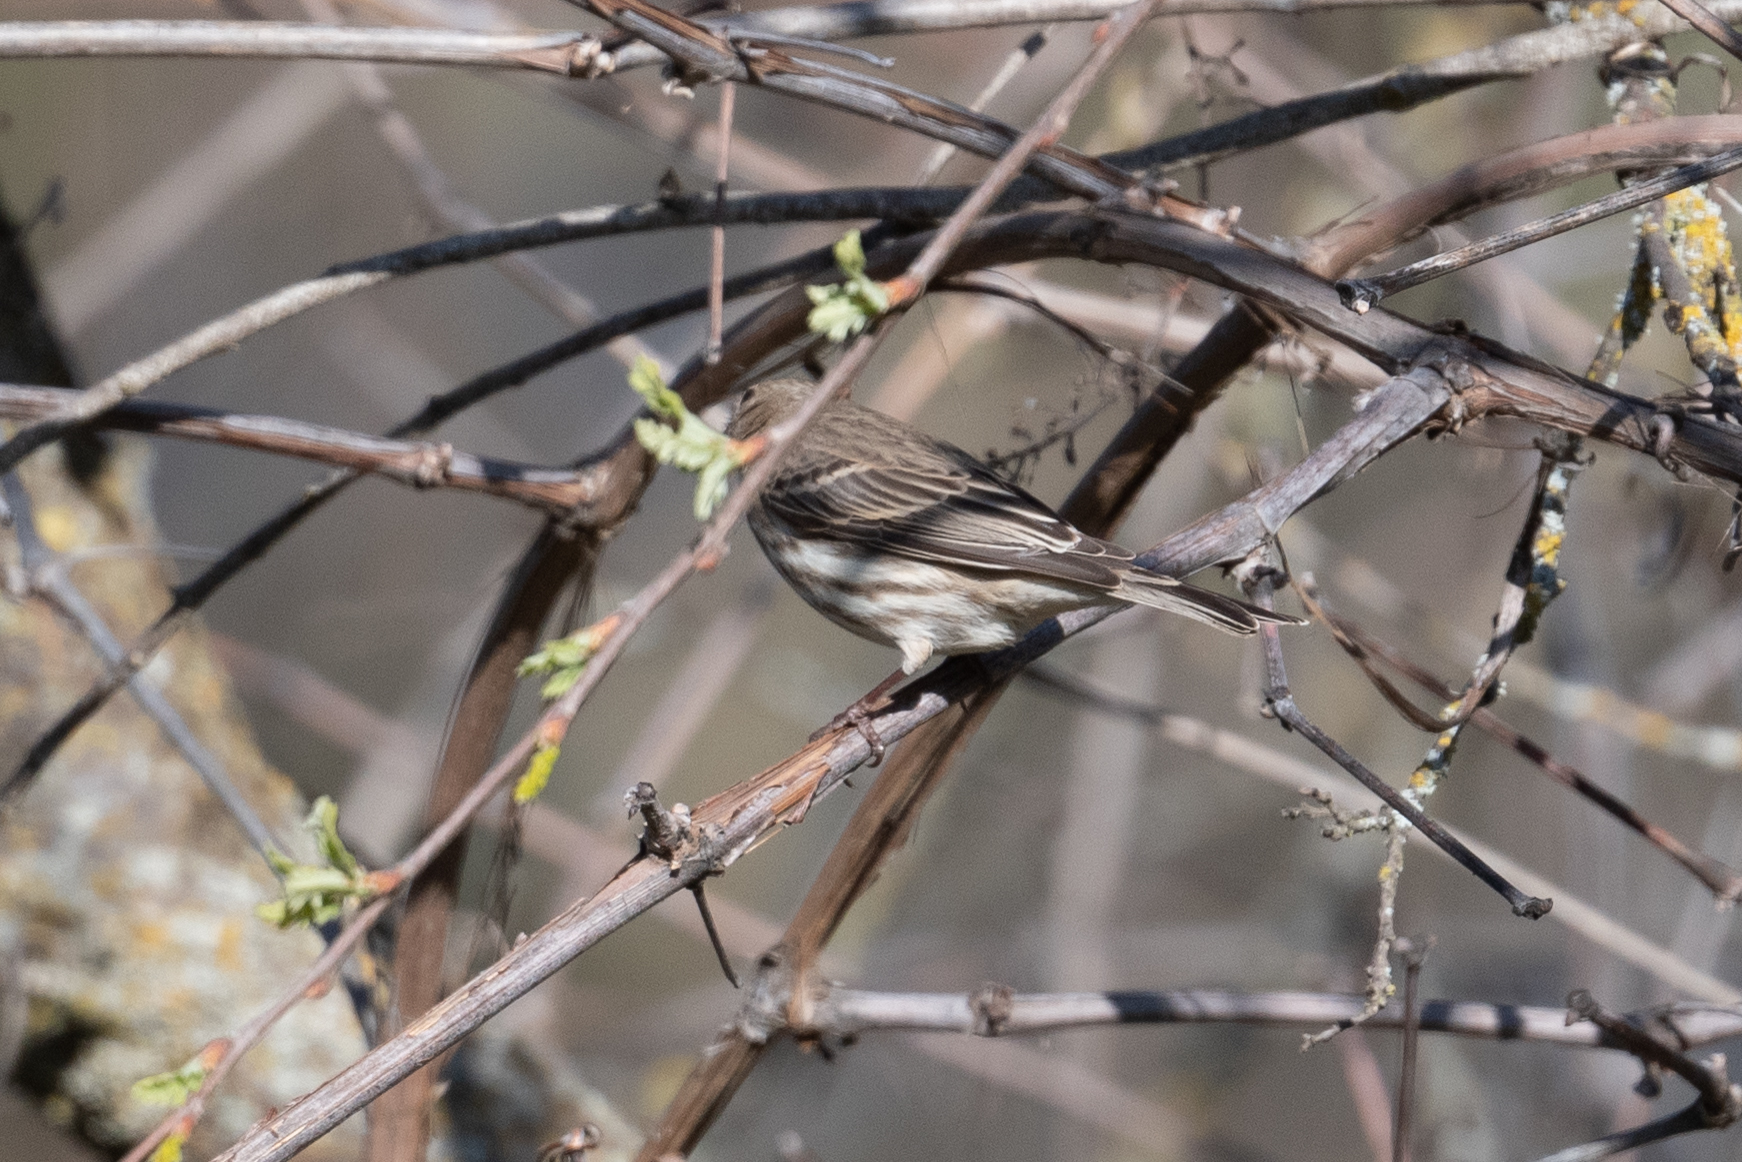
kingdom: Animalia
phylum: Chordata
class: Aves
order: Passeriformes
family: Parulidae
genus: Setophaga
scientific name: Setophaga coronata
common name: Myrtle warbler
